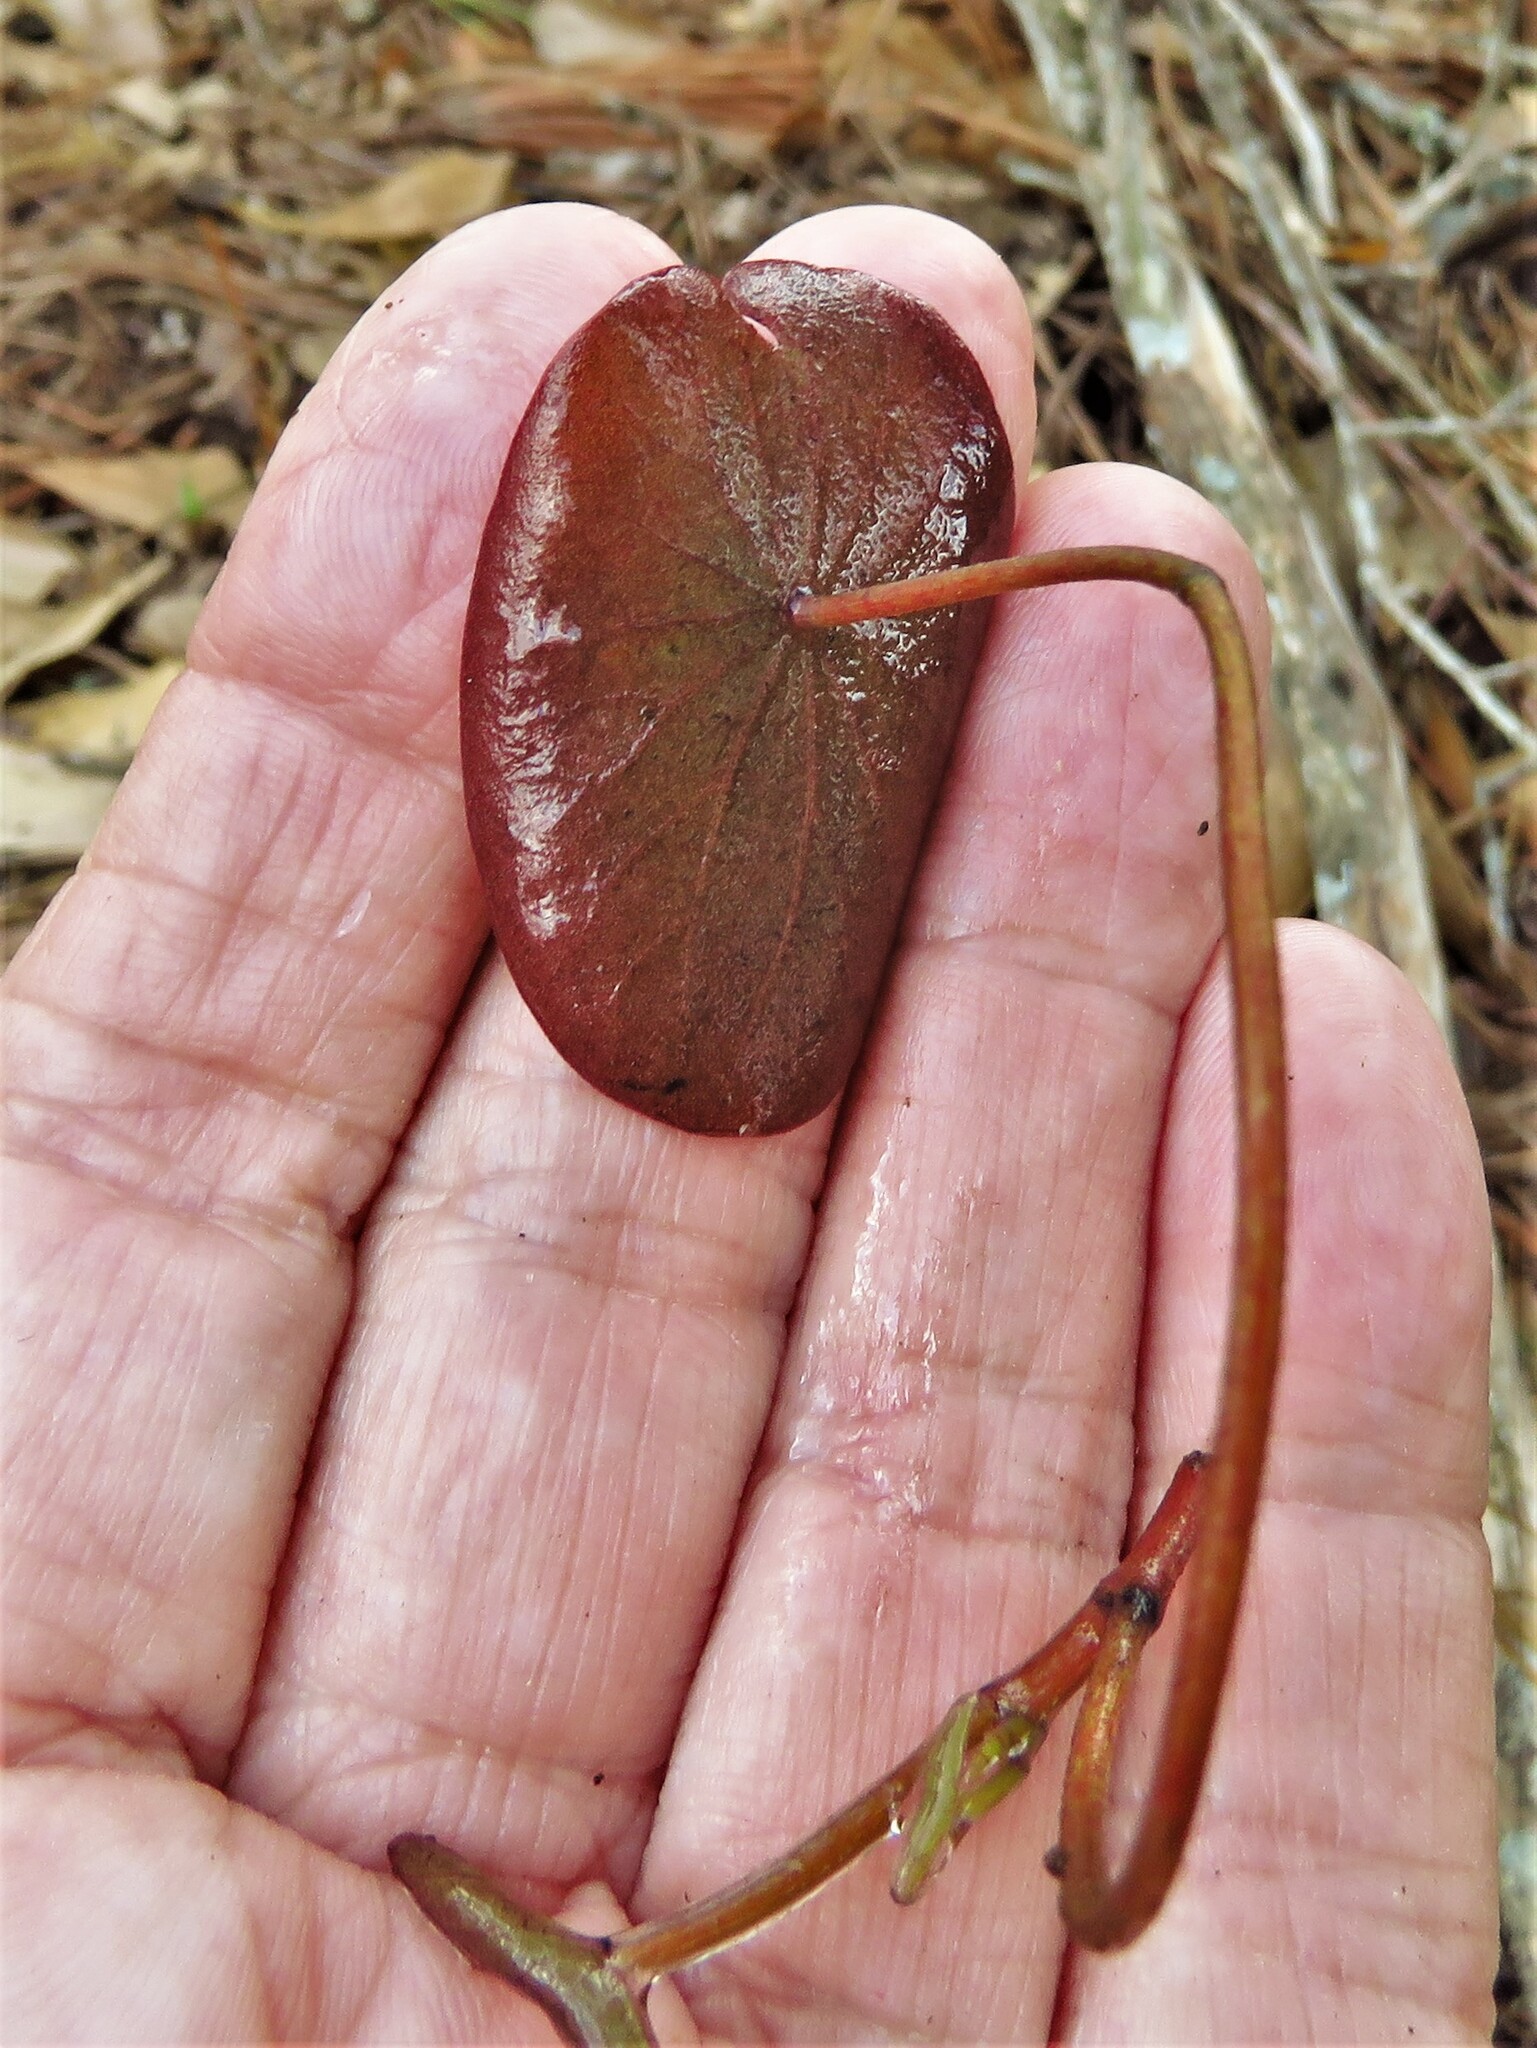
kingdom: Plantae
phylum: Tracheophyta
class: Magnoliopsida
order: Nymphaeales
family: Cabombaceae
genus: Brasenia
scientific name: Brasenia schreberi
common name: Water-shield
